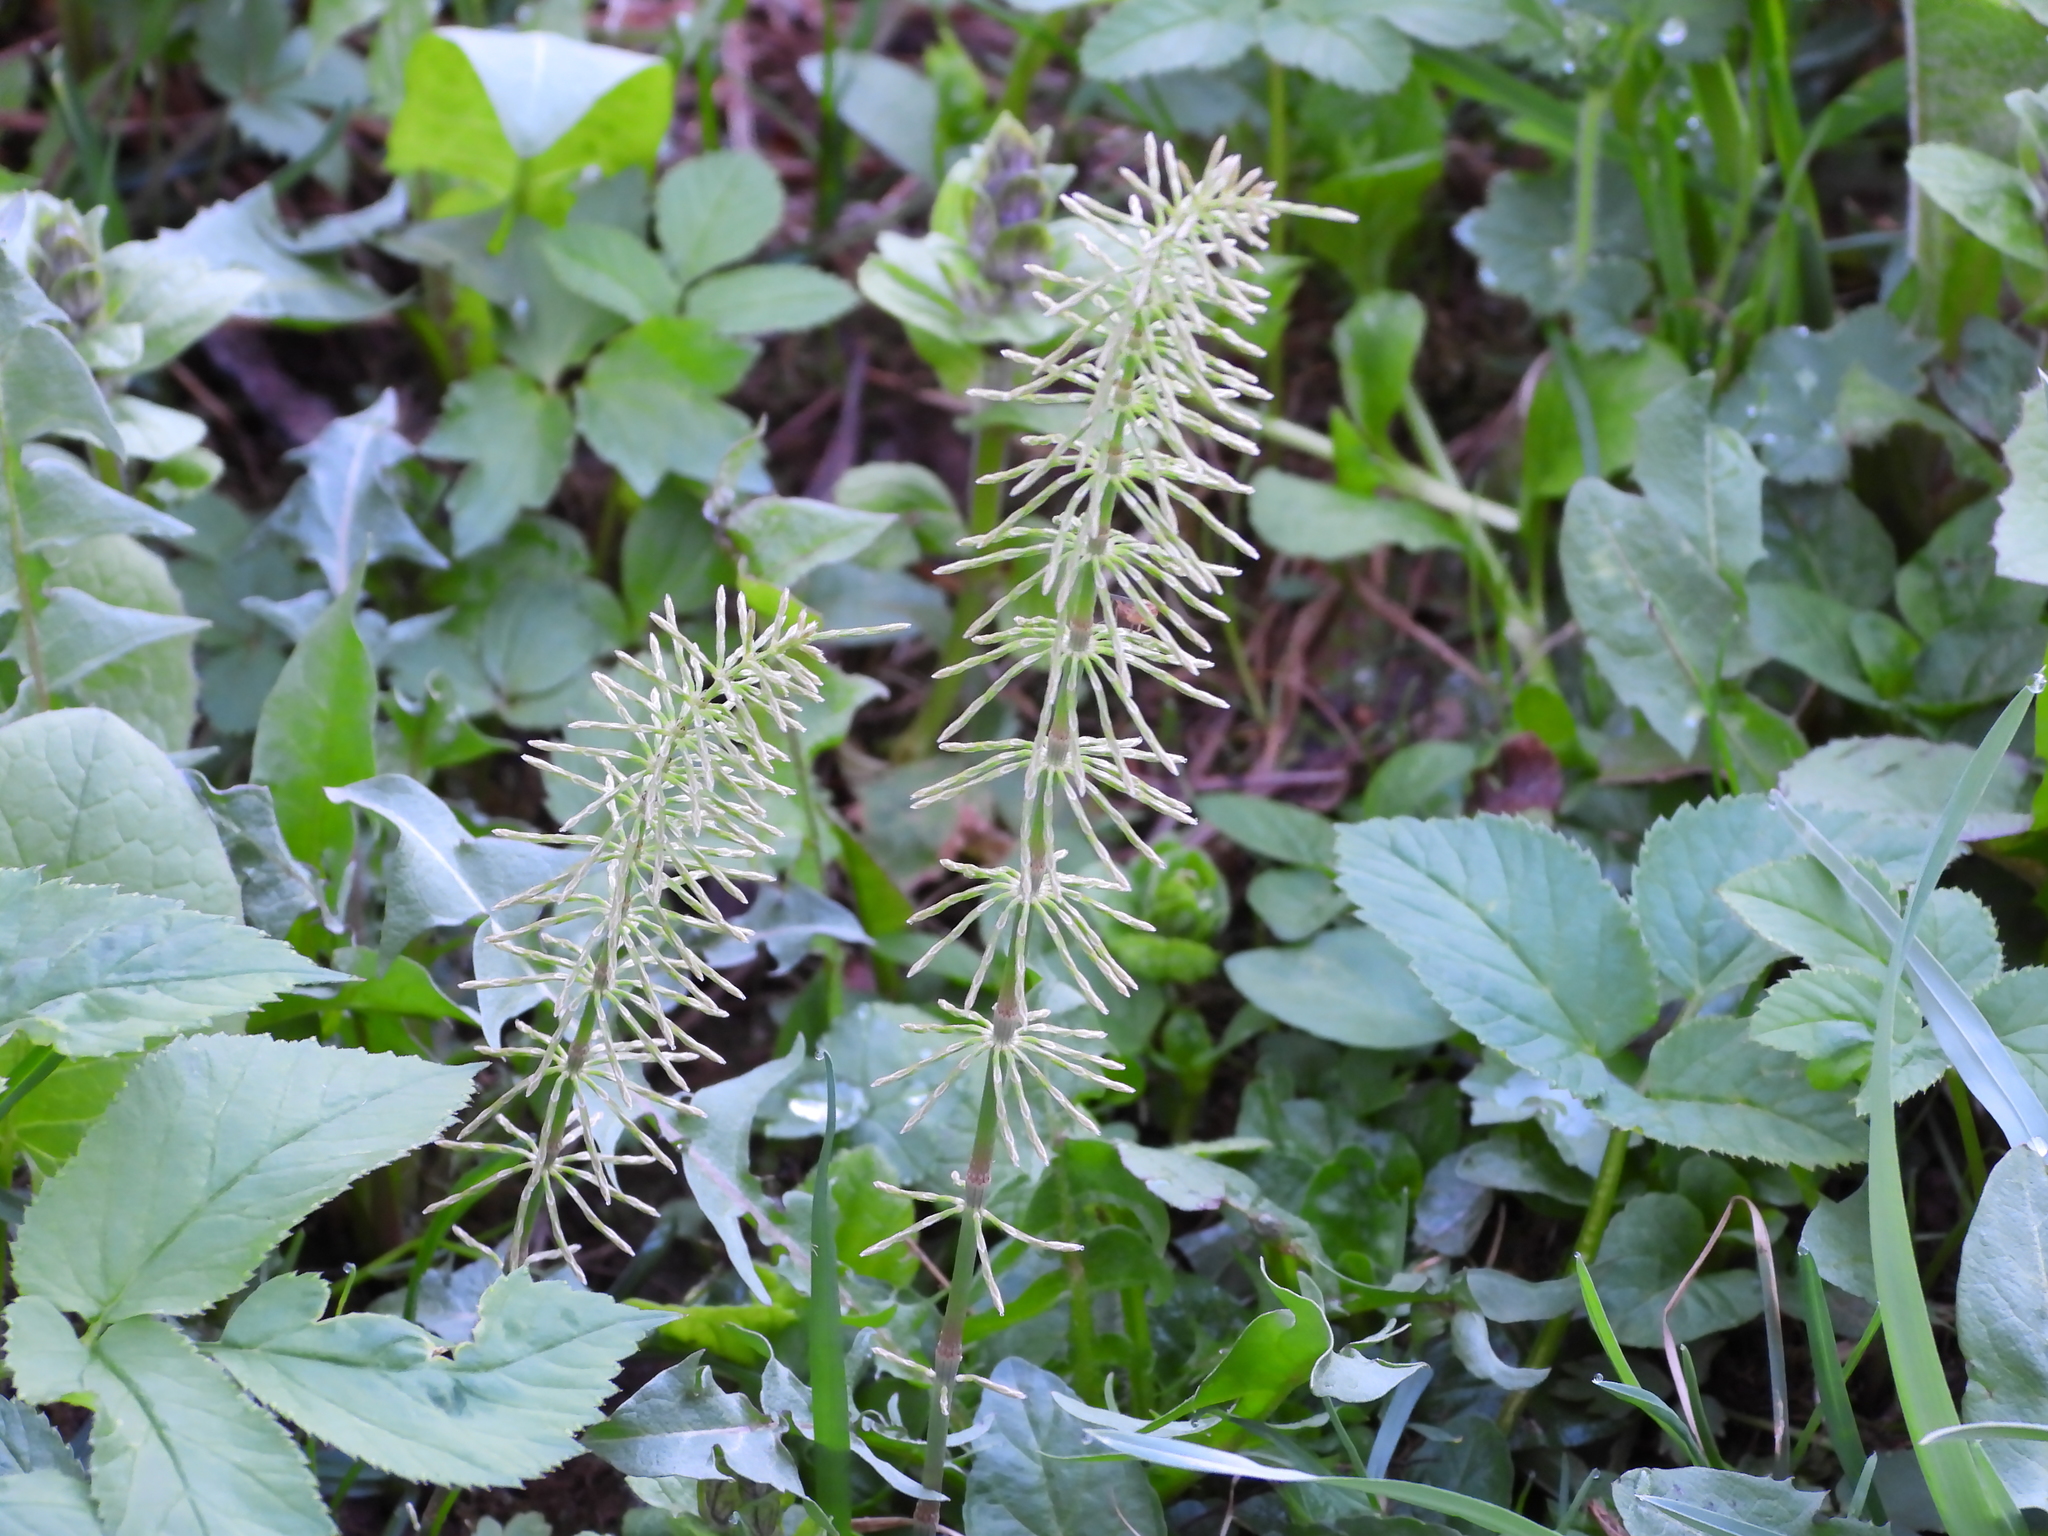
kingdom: Plantae
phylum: Tracheophyta
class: Polypodiopsida
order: Equisetales
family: Equisetaceae
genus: Equisetum
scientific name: Equisetum pratense
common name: Meadow horsetail
